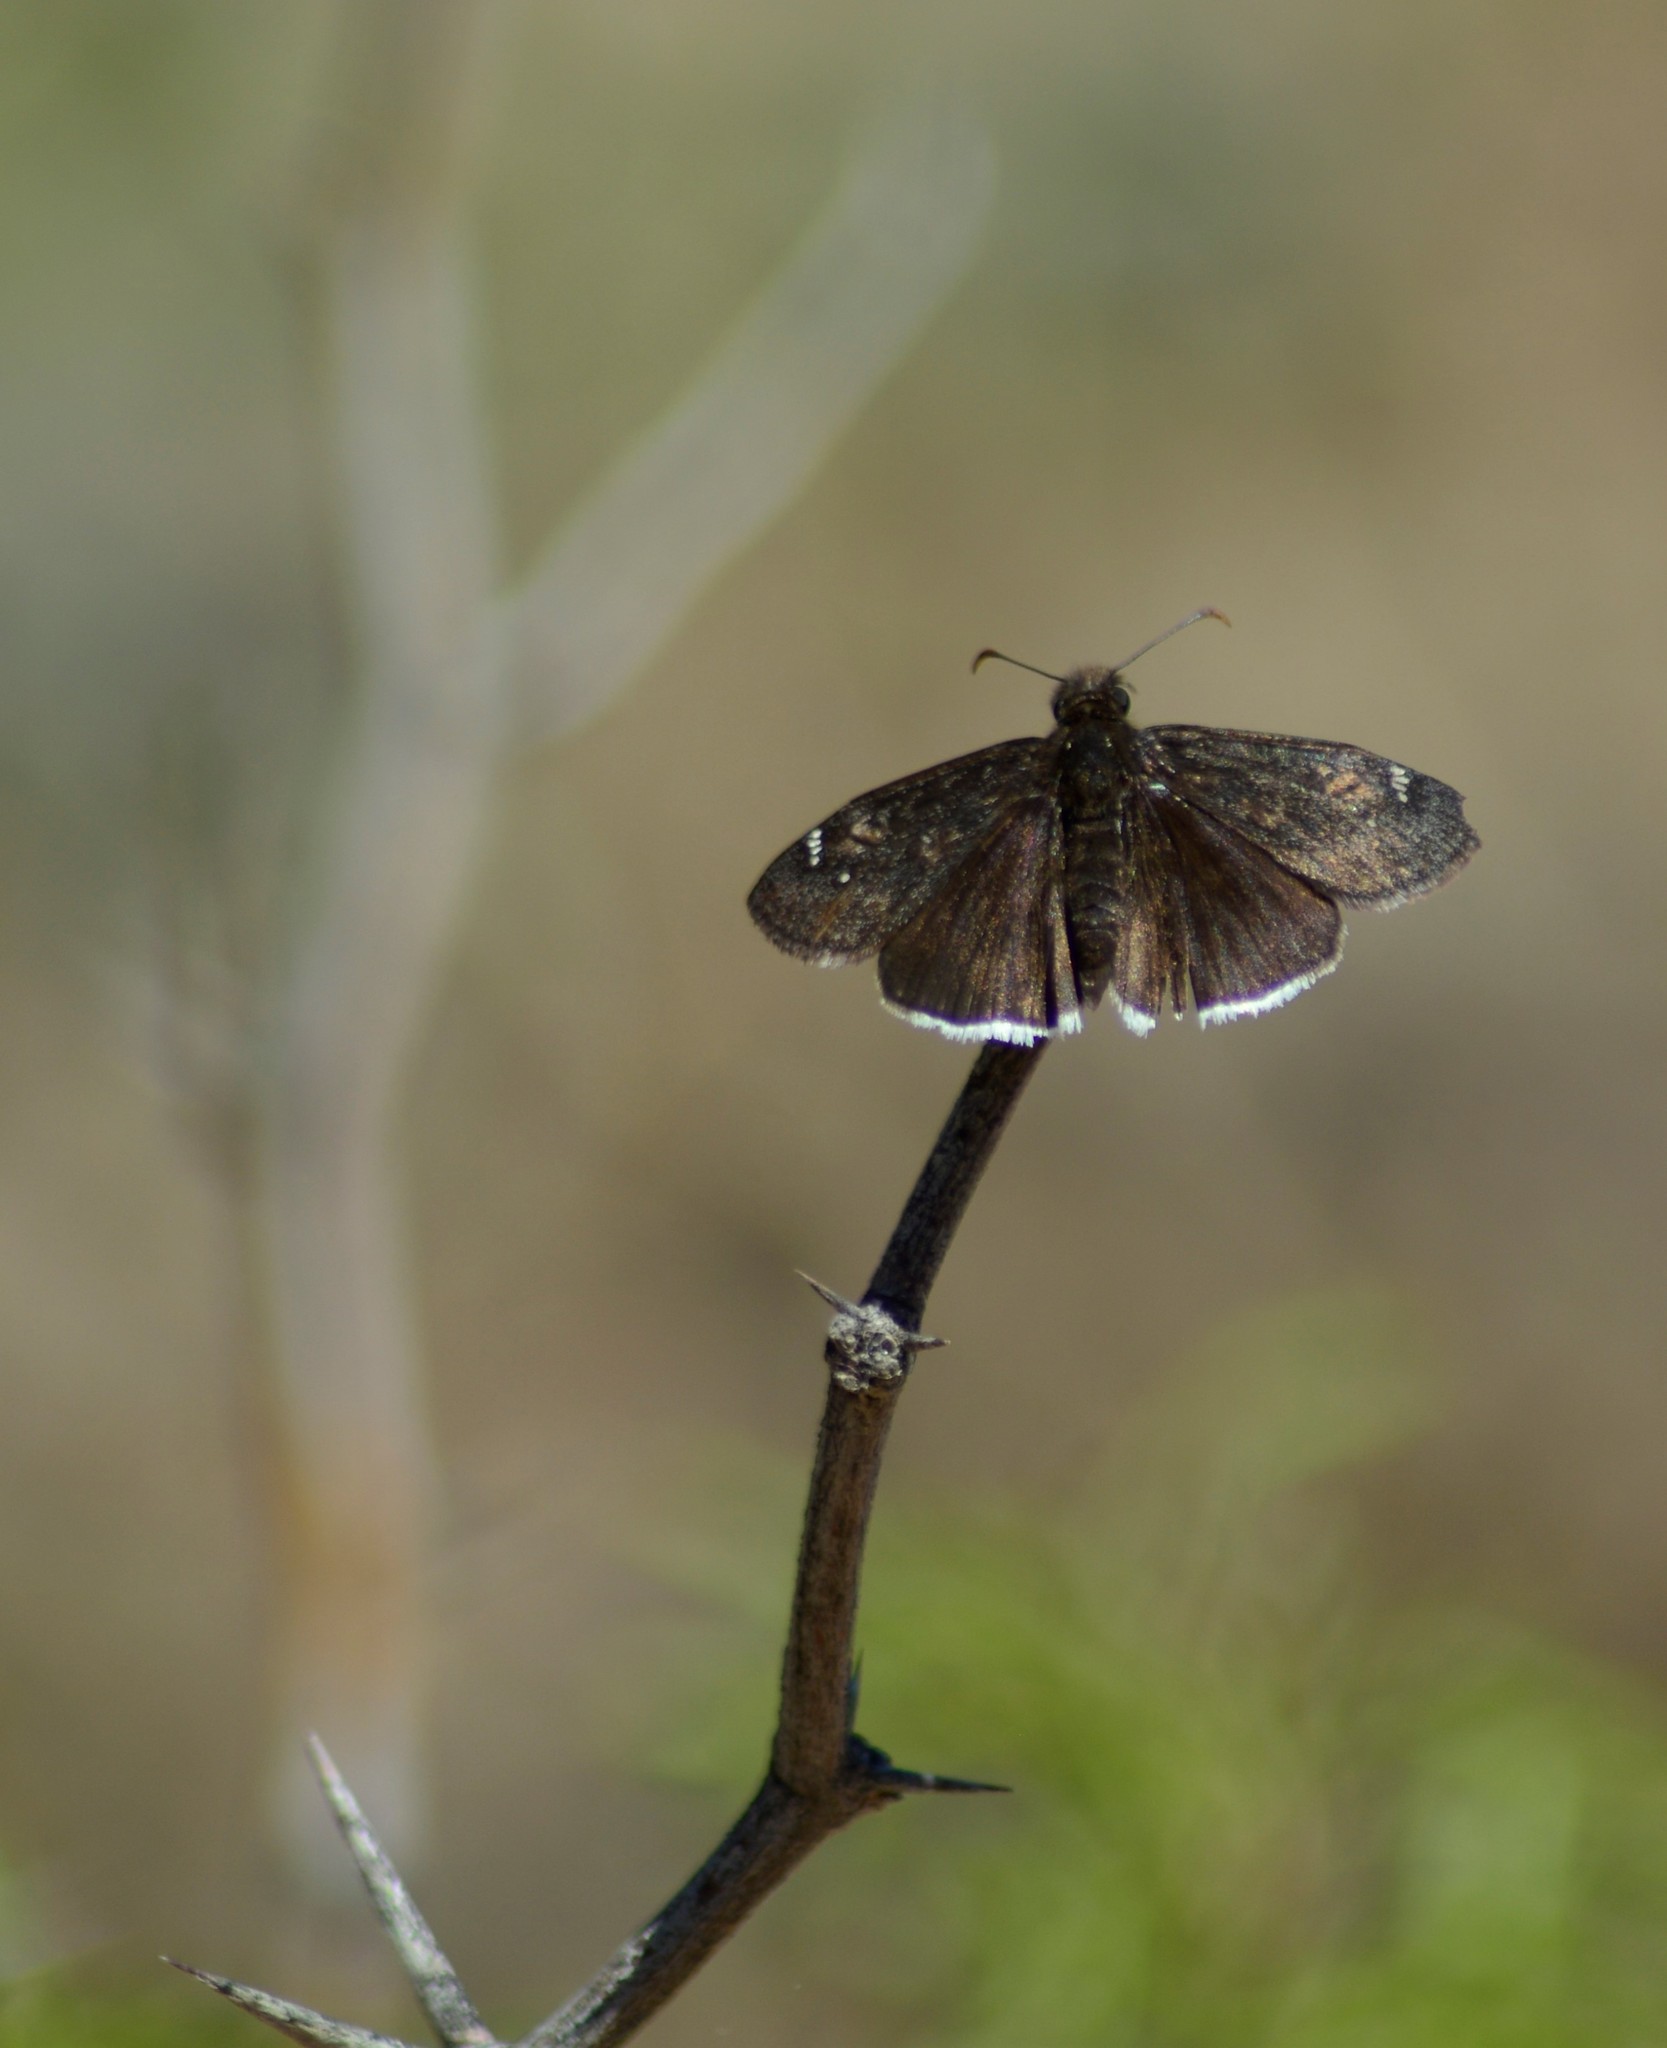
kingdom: Animalia
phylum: Arthropoda
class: Insecta
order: Lepidoptera
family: Hesperiidae
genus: Erynnis
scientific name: Erynnis funeralis
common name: Funereal duskywing
